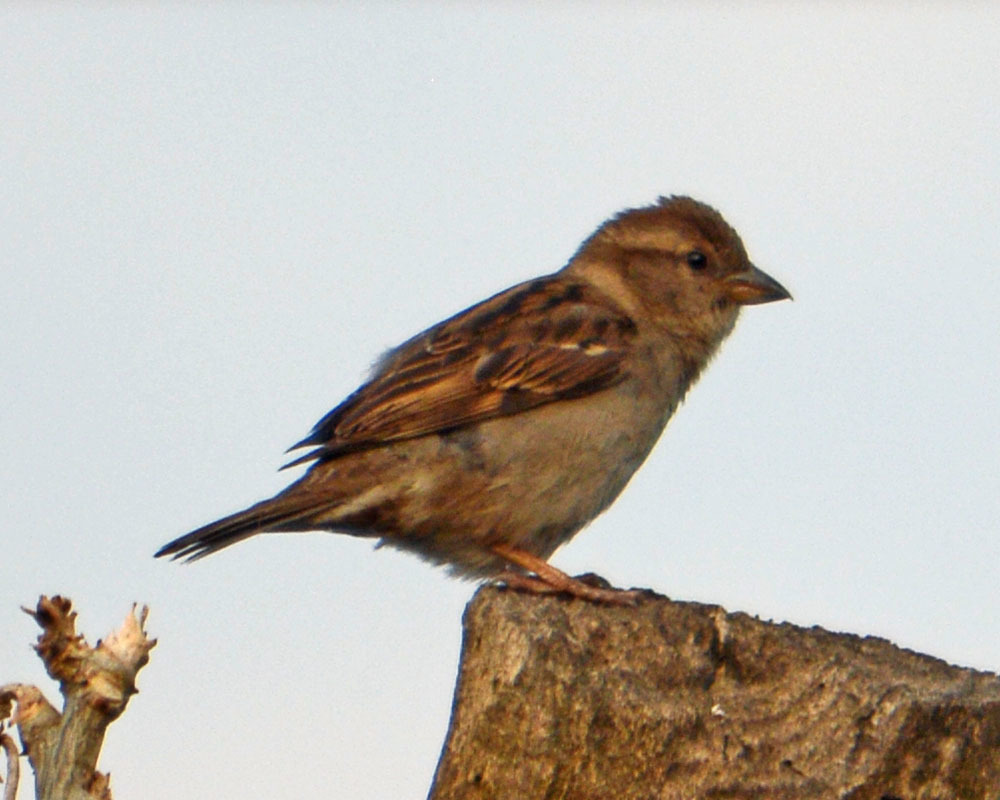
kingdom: Animalia
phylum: Chordata
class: Aves
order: Passeriformes
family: Passeridae
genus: Passer
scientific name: Passer domesticus
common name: House sparrow
